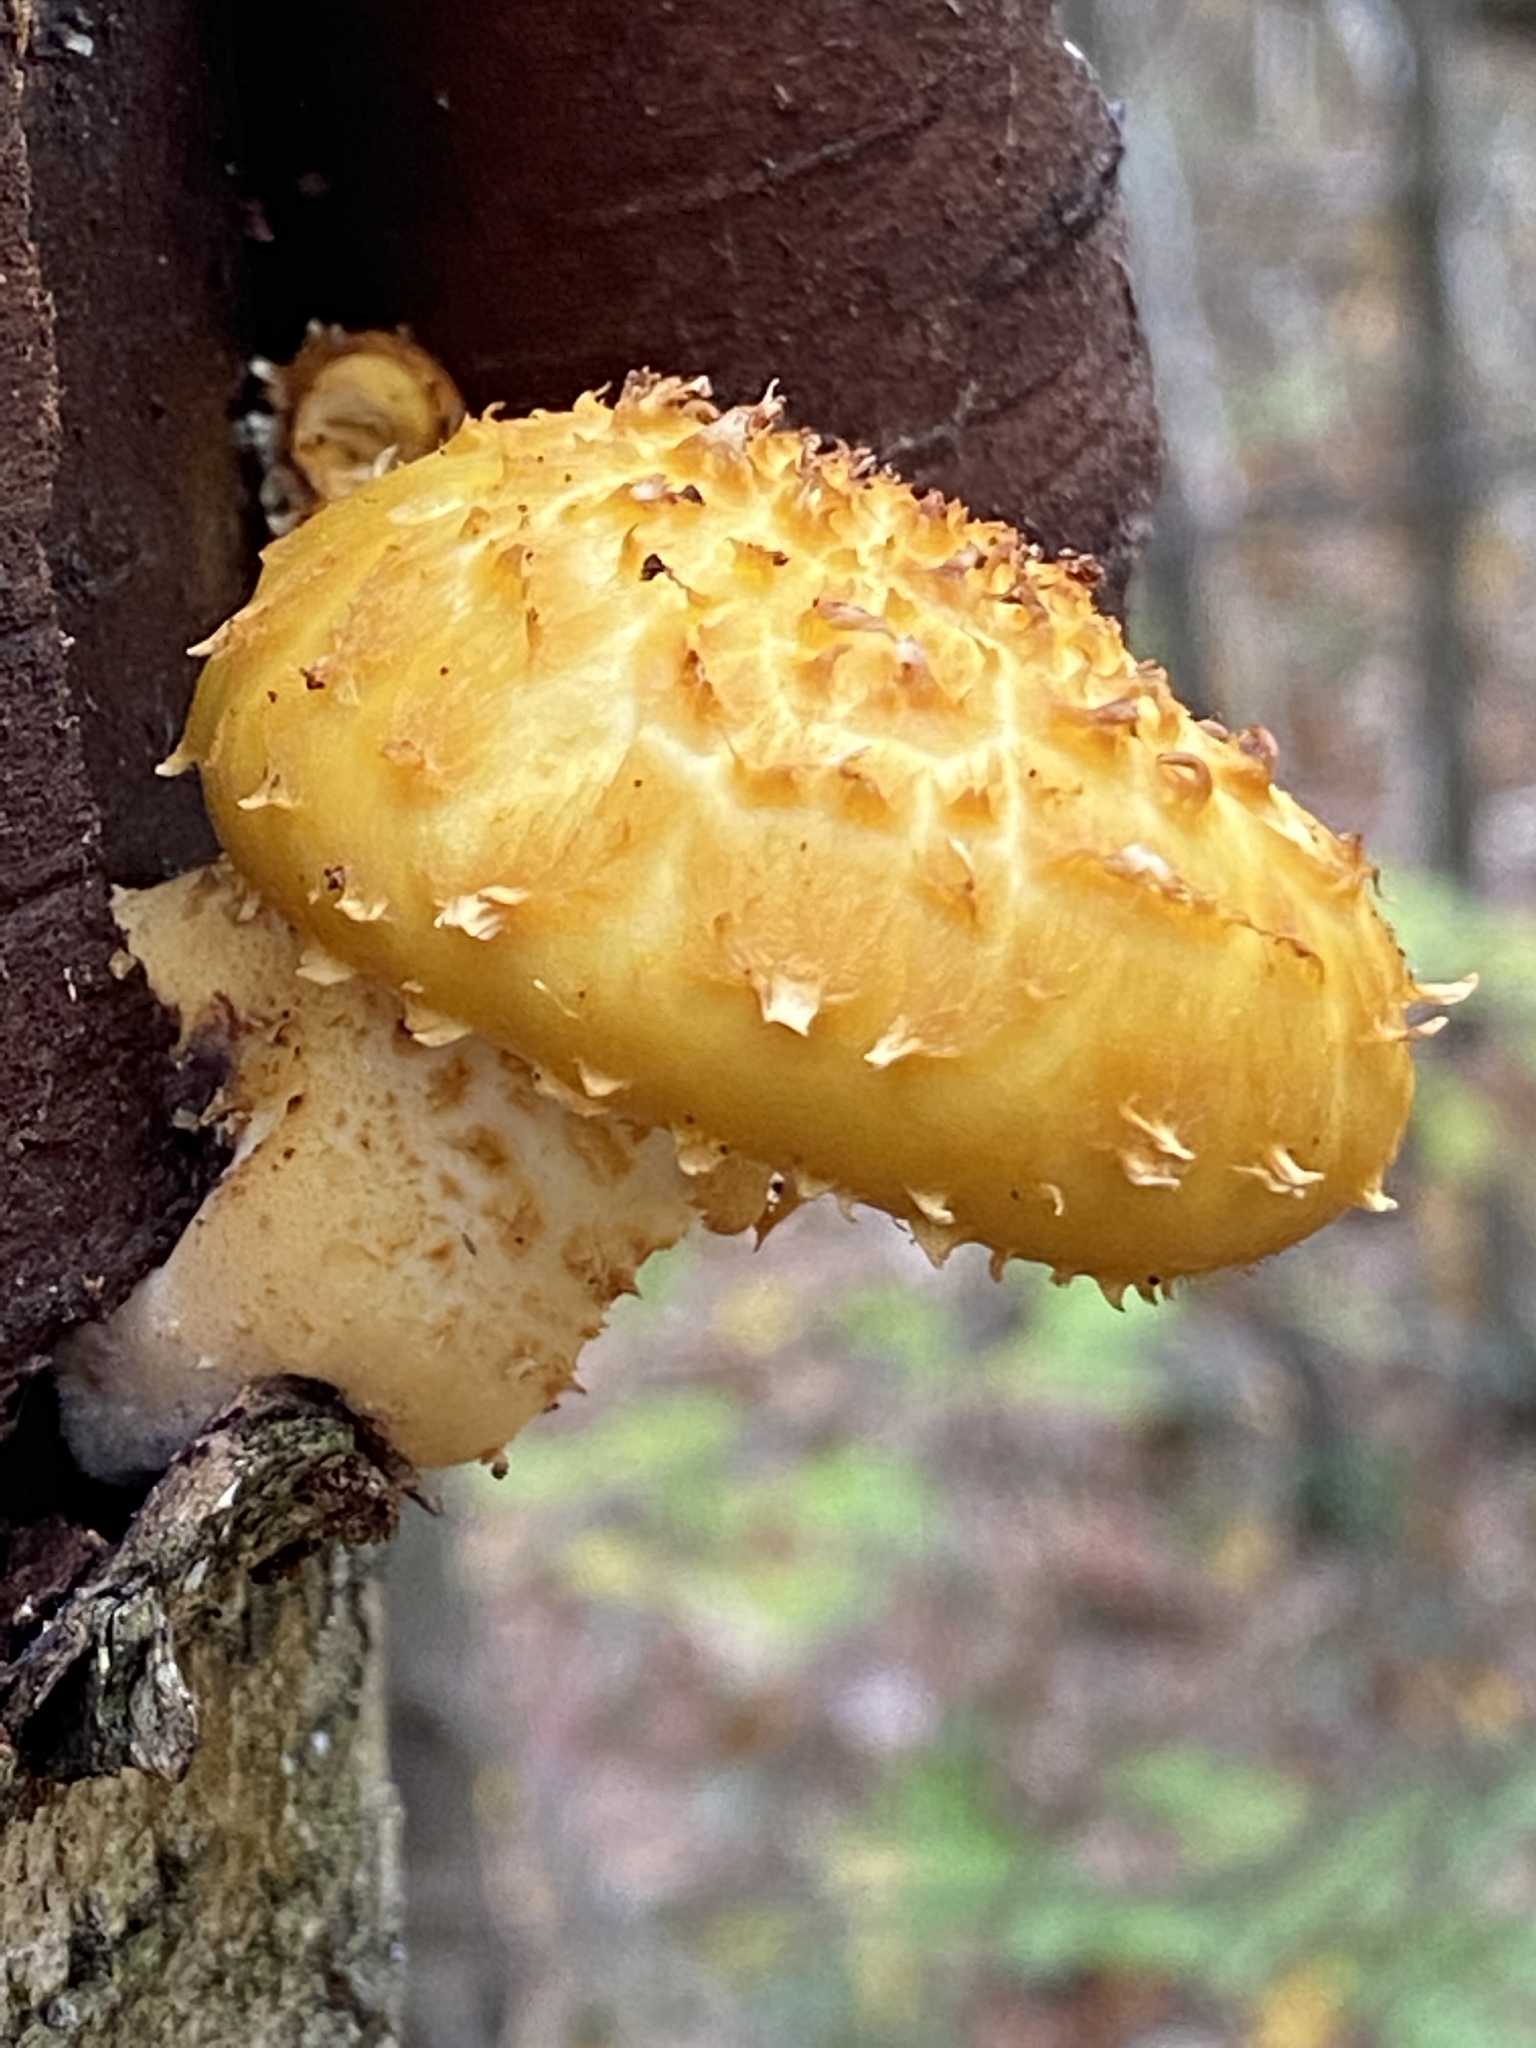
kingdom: Fungi
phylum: Basidiomycota
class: Agaricomycetes
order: Agaricales
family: Strophariaceae
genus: Pholiota
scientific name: Pholiota aurivella
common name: Golden scalycap
